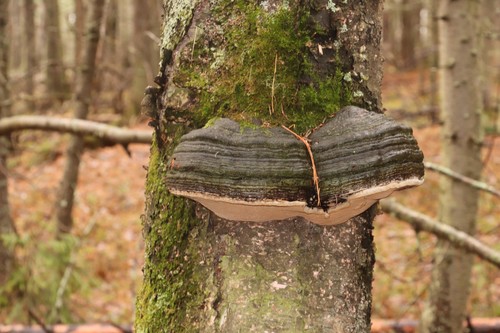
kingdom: Fungi
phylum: Basidiomycota
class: Agaricomycetes
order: Polyporales
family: Polyporaceae
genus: Fomes
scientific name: Fomes fomentarius
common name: Hoof fungus
